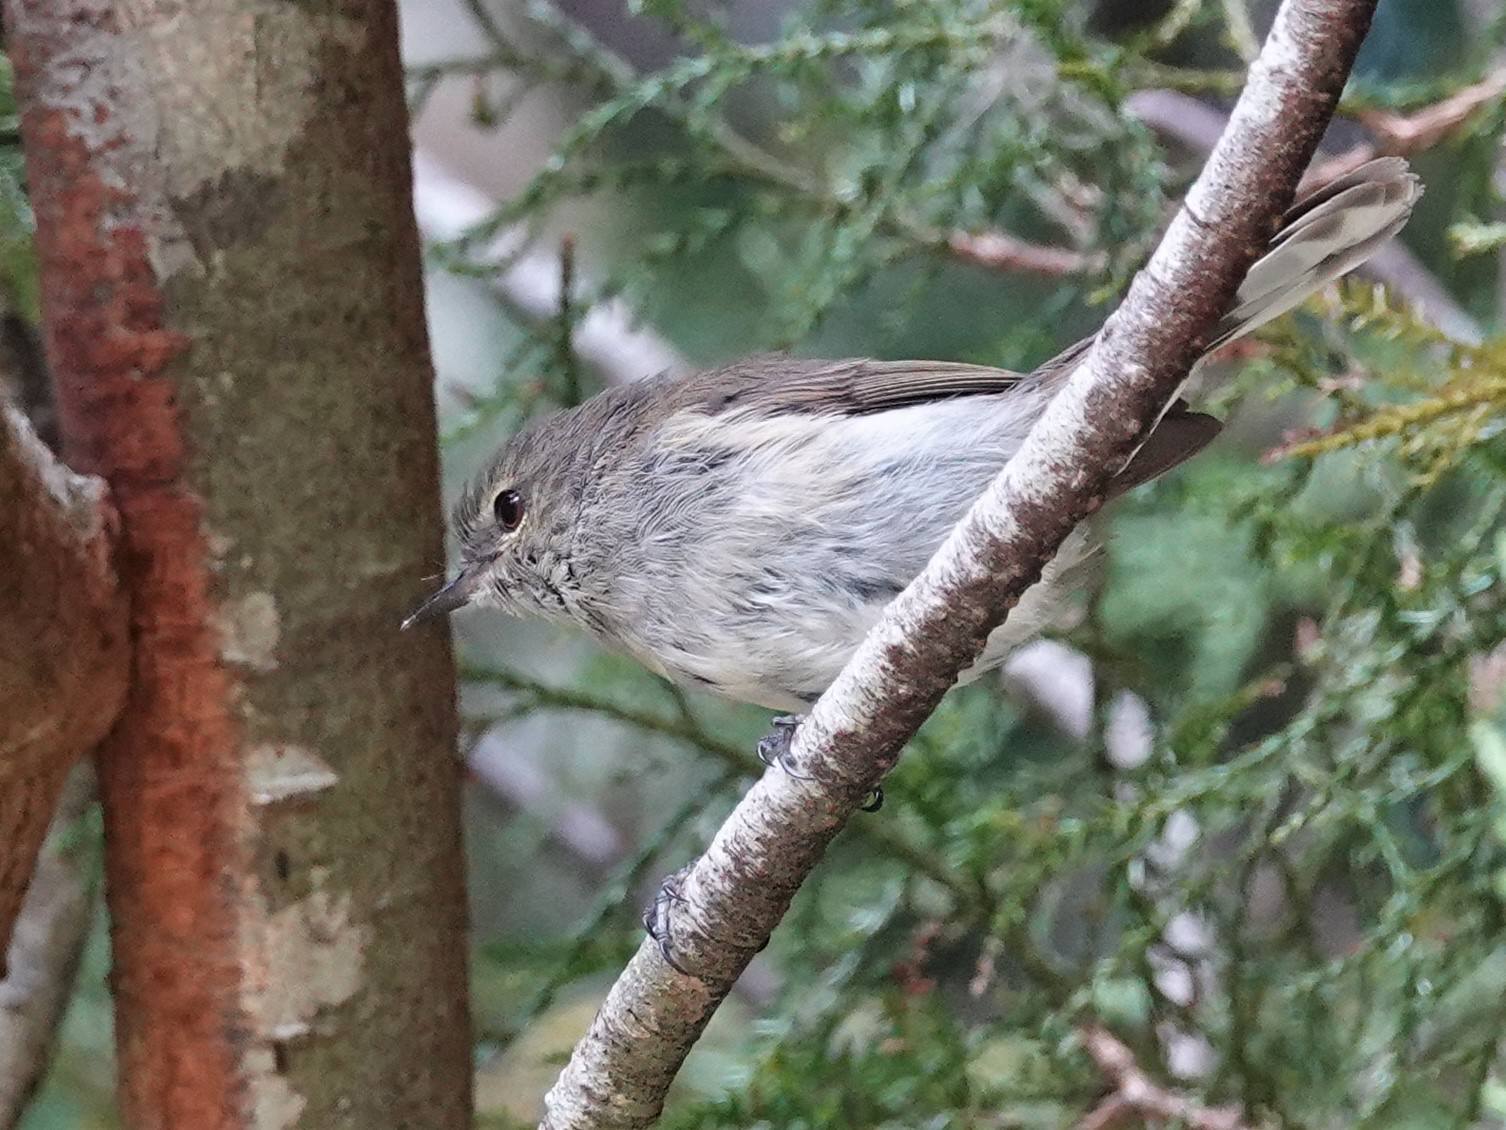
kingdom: Animalia
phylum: Chordata
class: Aves
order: Passeriformes
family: Acanthizidae
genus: Gerygone
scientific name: Gerygone igata
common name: Grey gerygone
